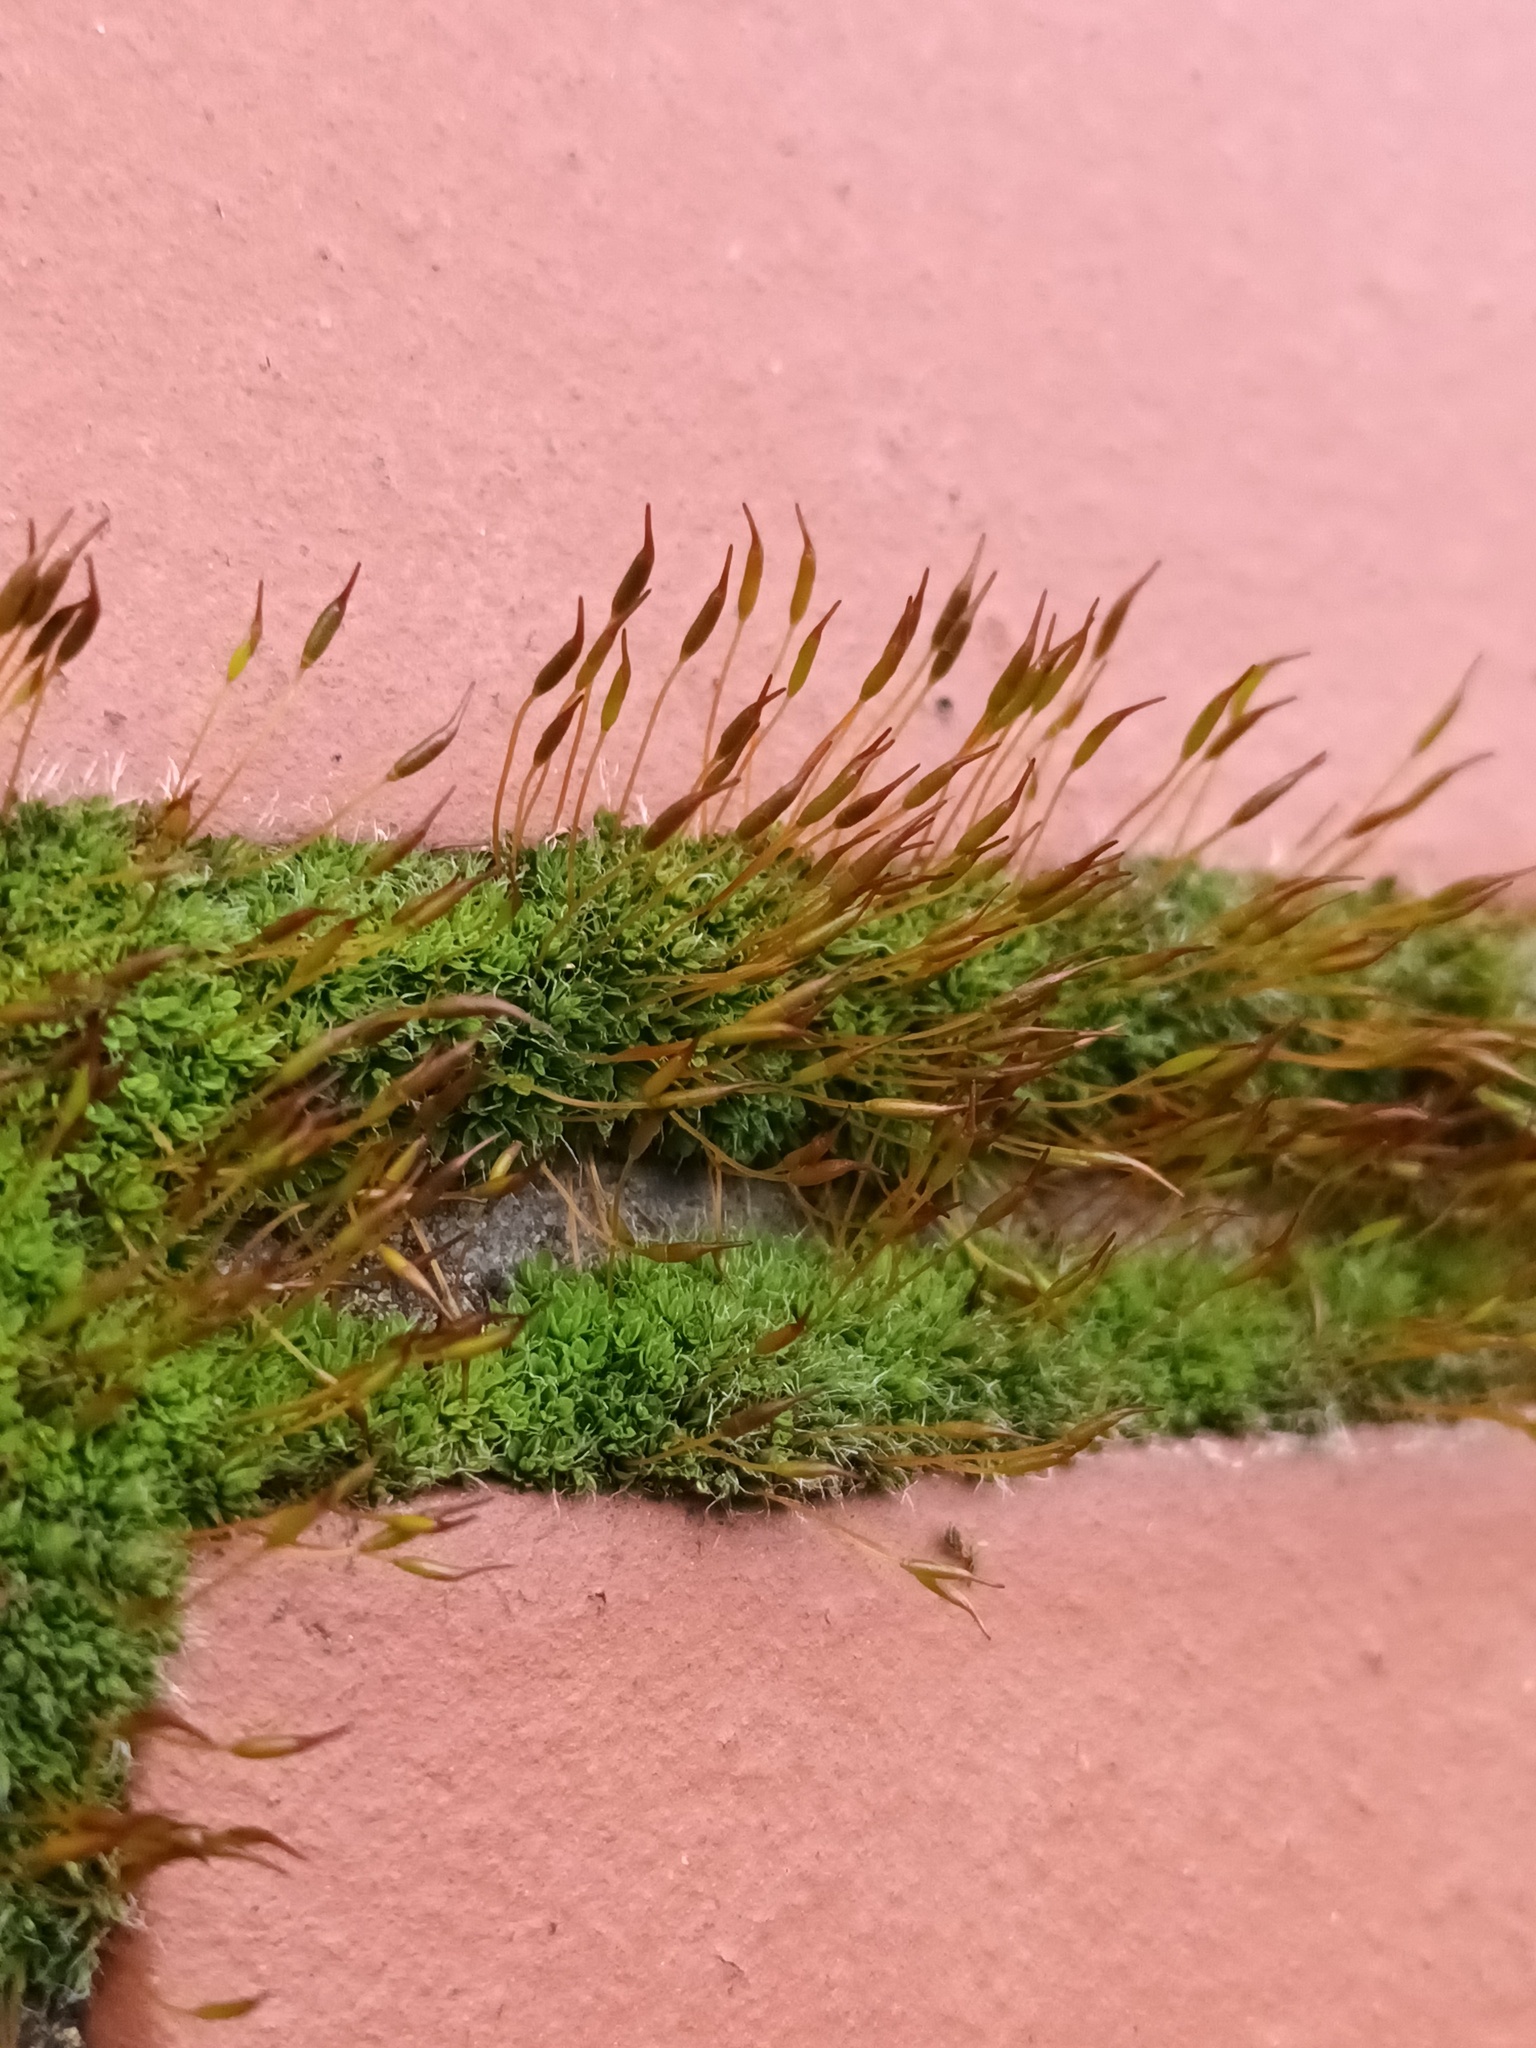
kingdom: Plantae
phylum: Bryophyta
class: Bryopsida
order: Pottiales
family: Pottiaceae
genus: Tortula
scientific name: Tortula muralis
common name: Wall screw-moss
